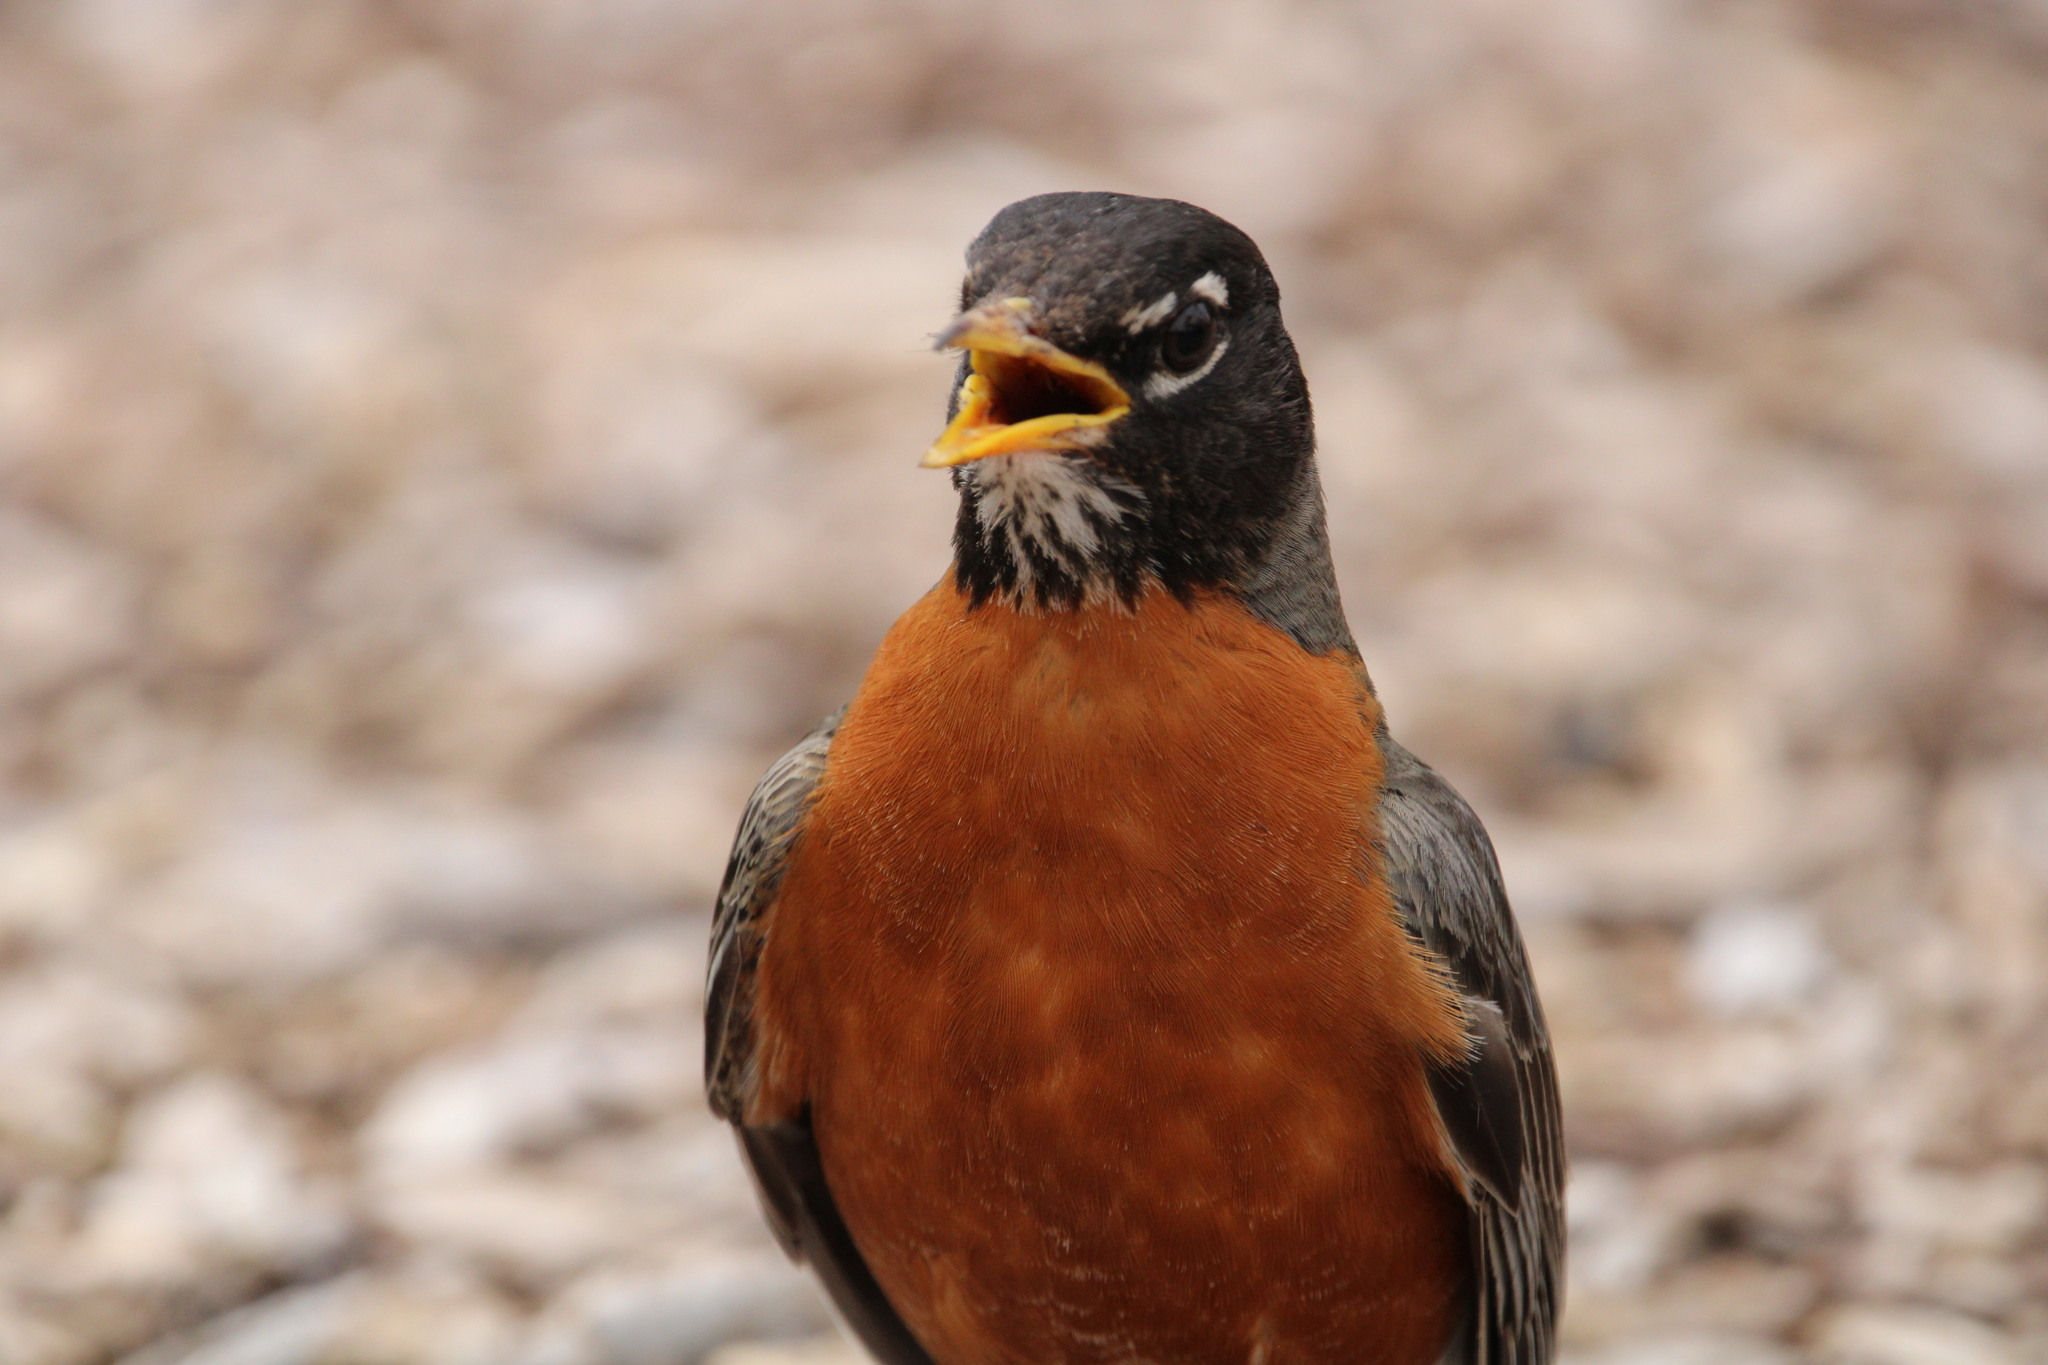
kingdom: Animalia
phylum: Chordata
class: Aves
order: Passeriformes
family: Turdidae
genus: Turdus
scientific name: Turdus migratorius
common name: American robin
